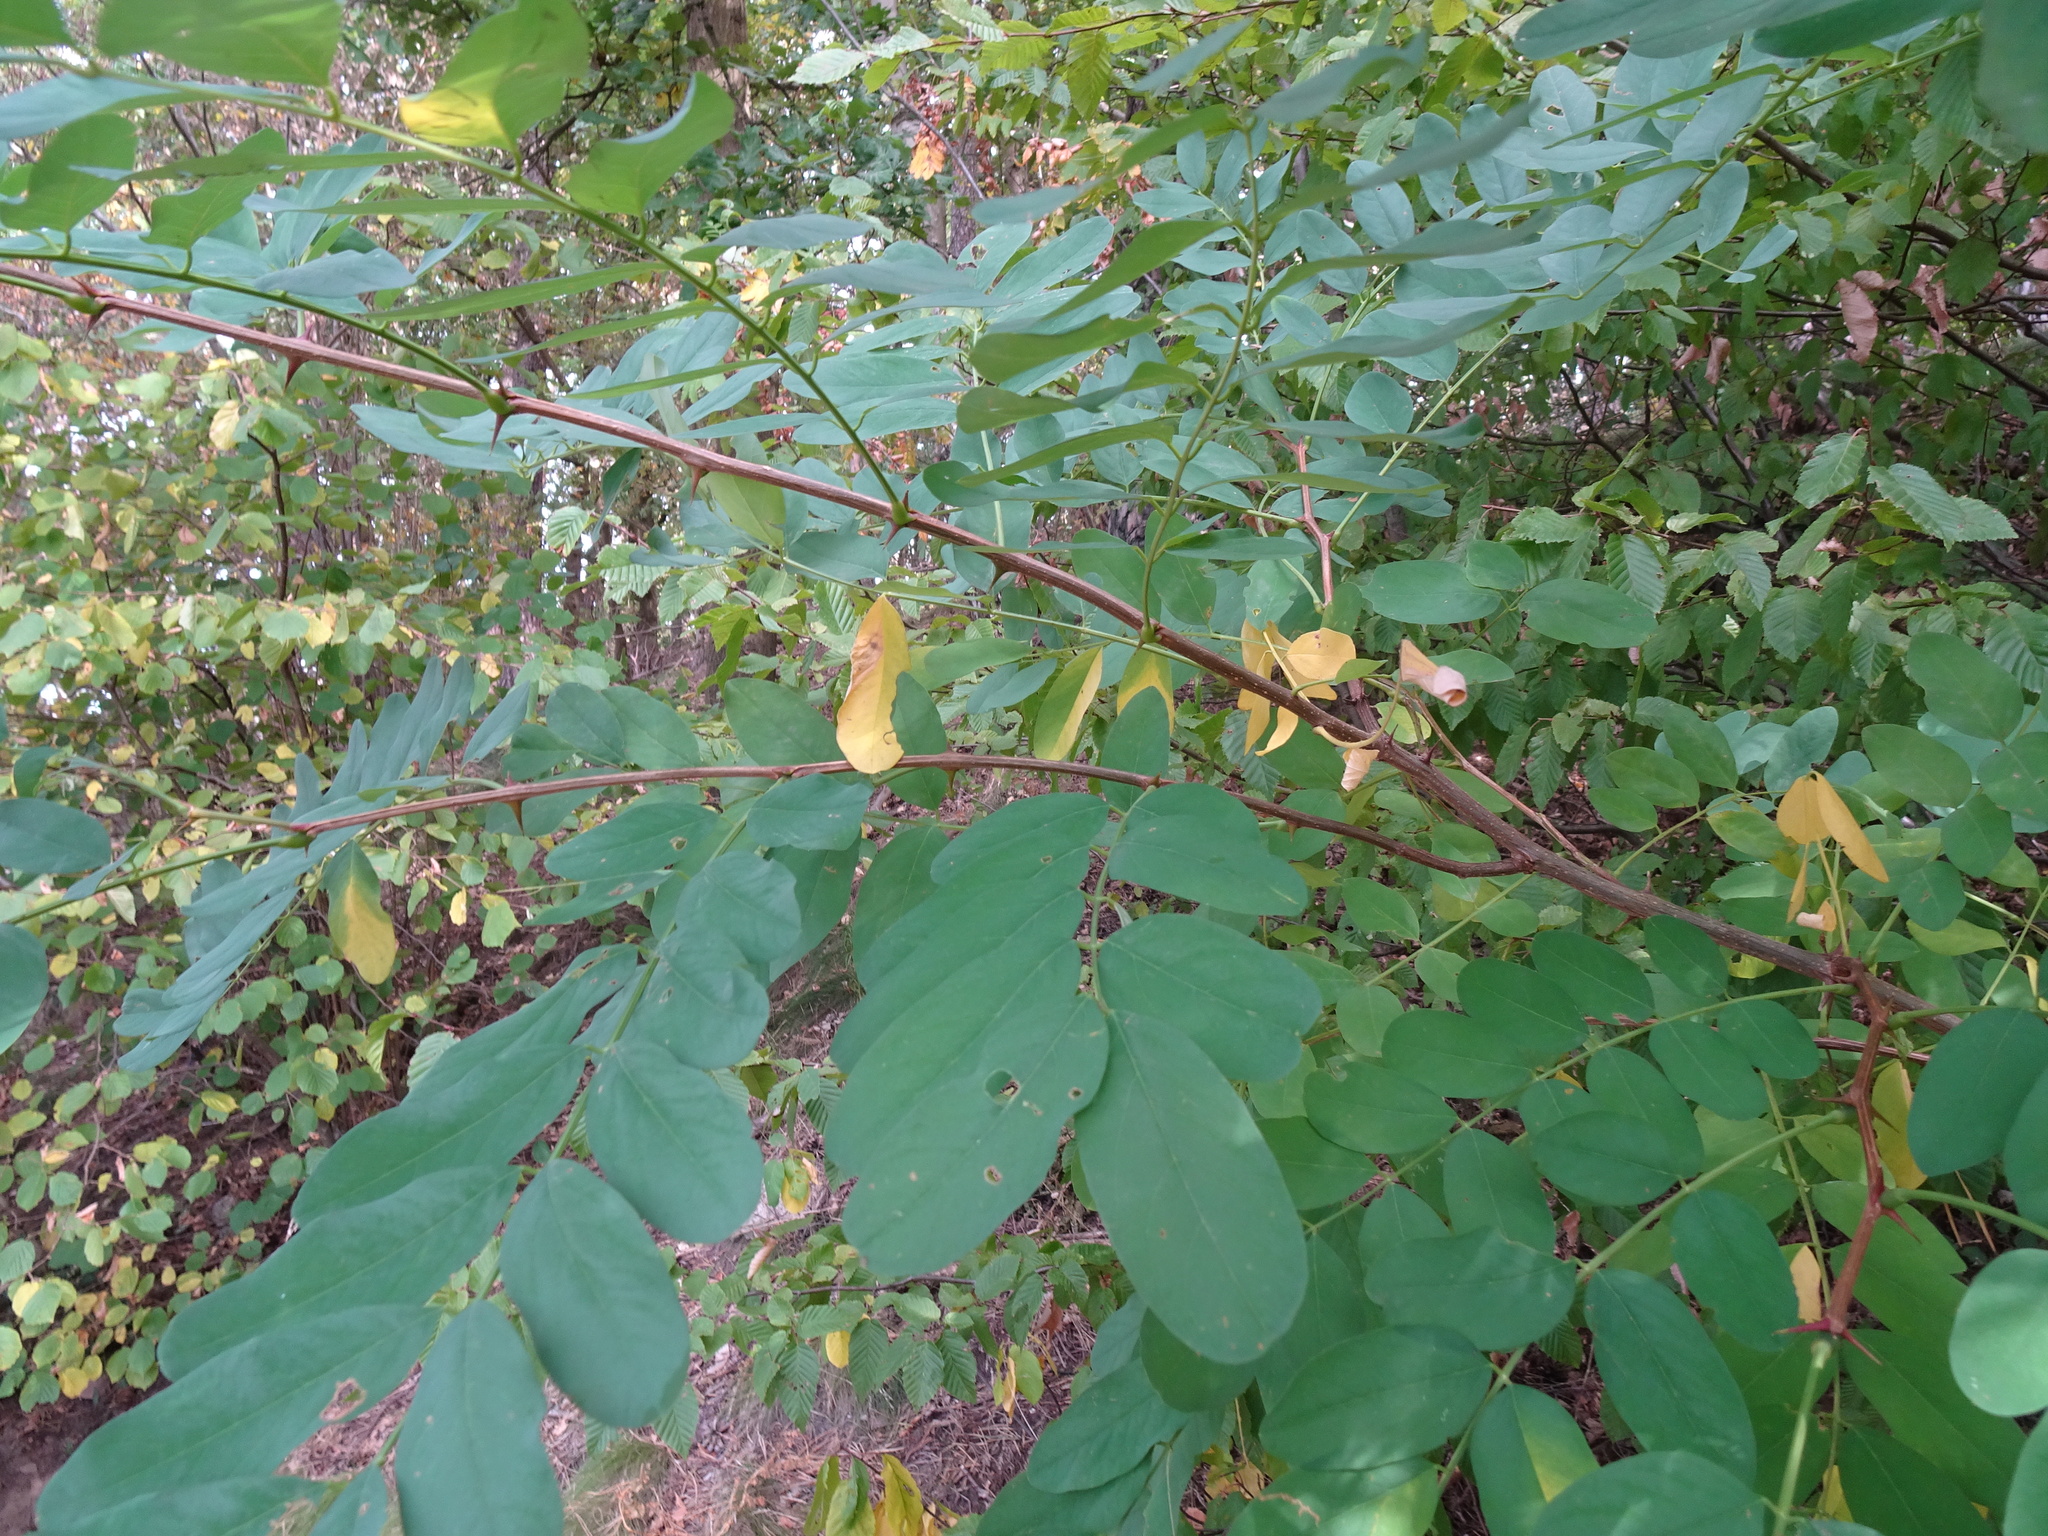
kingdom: Plantae
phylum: Tracheophyta
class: Magnoliopsida
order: Fabales
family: Fabaceae
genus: Robinia
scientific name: Robinia pseudoacacia
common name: Black locust
